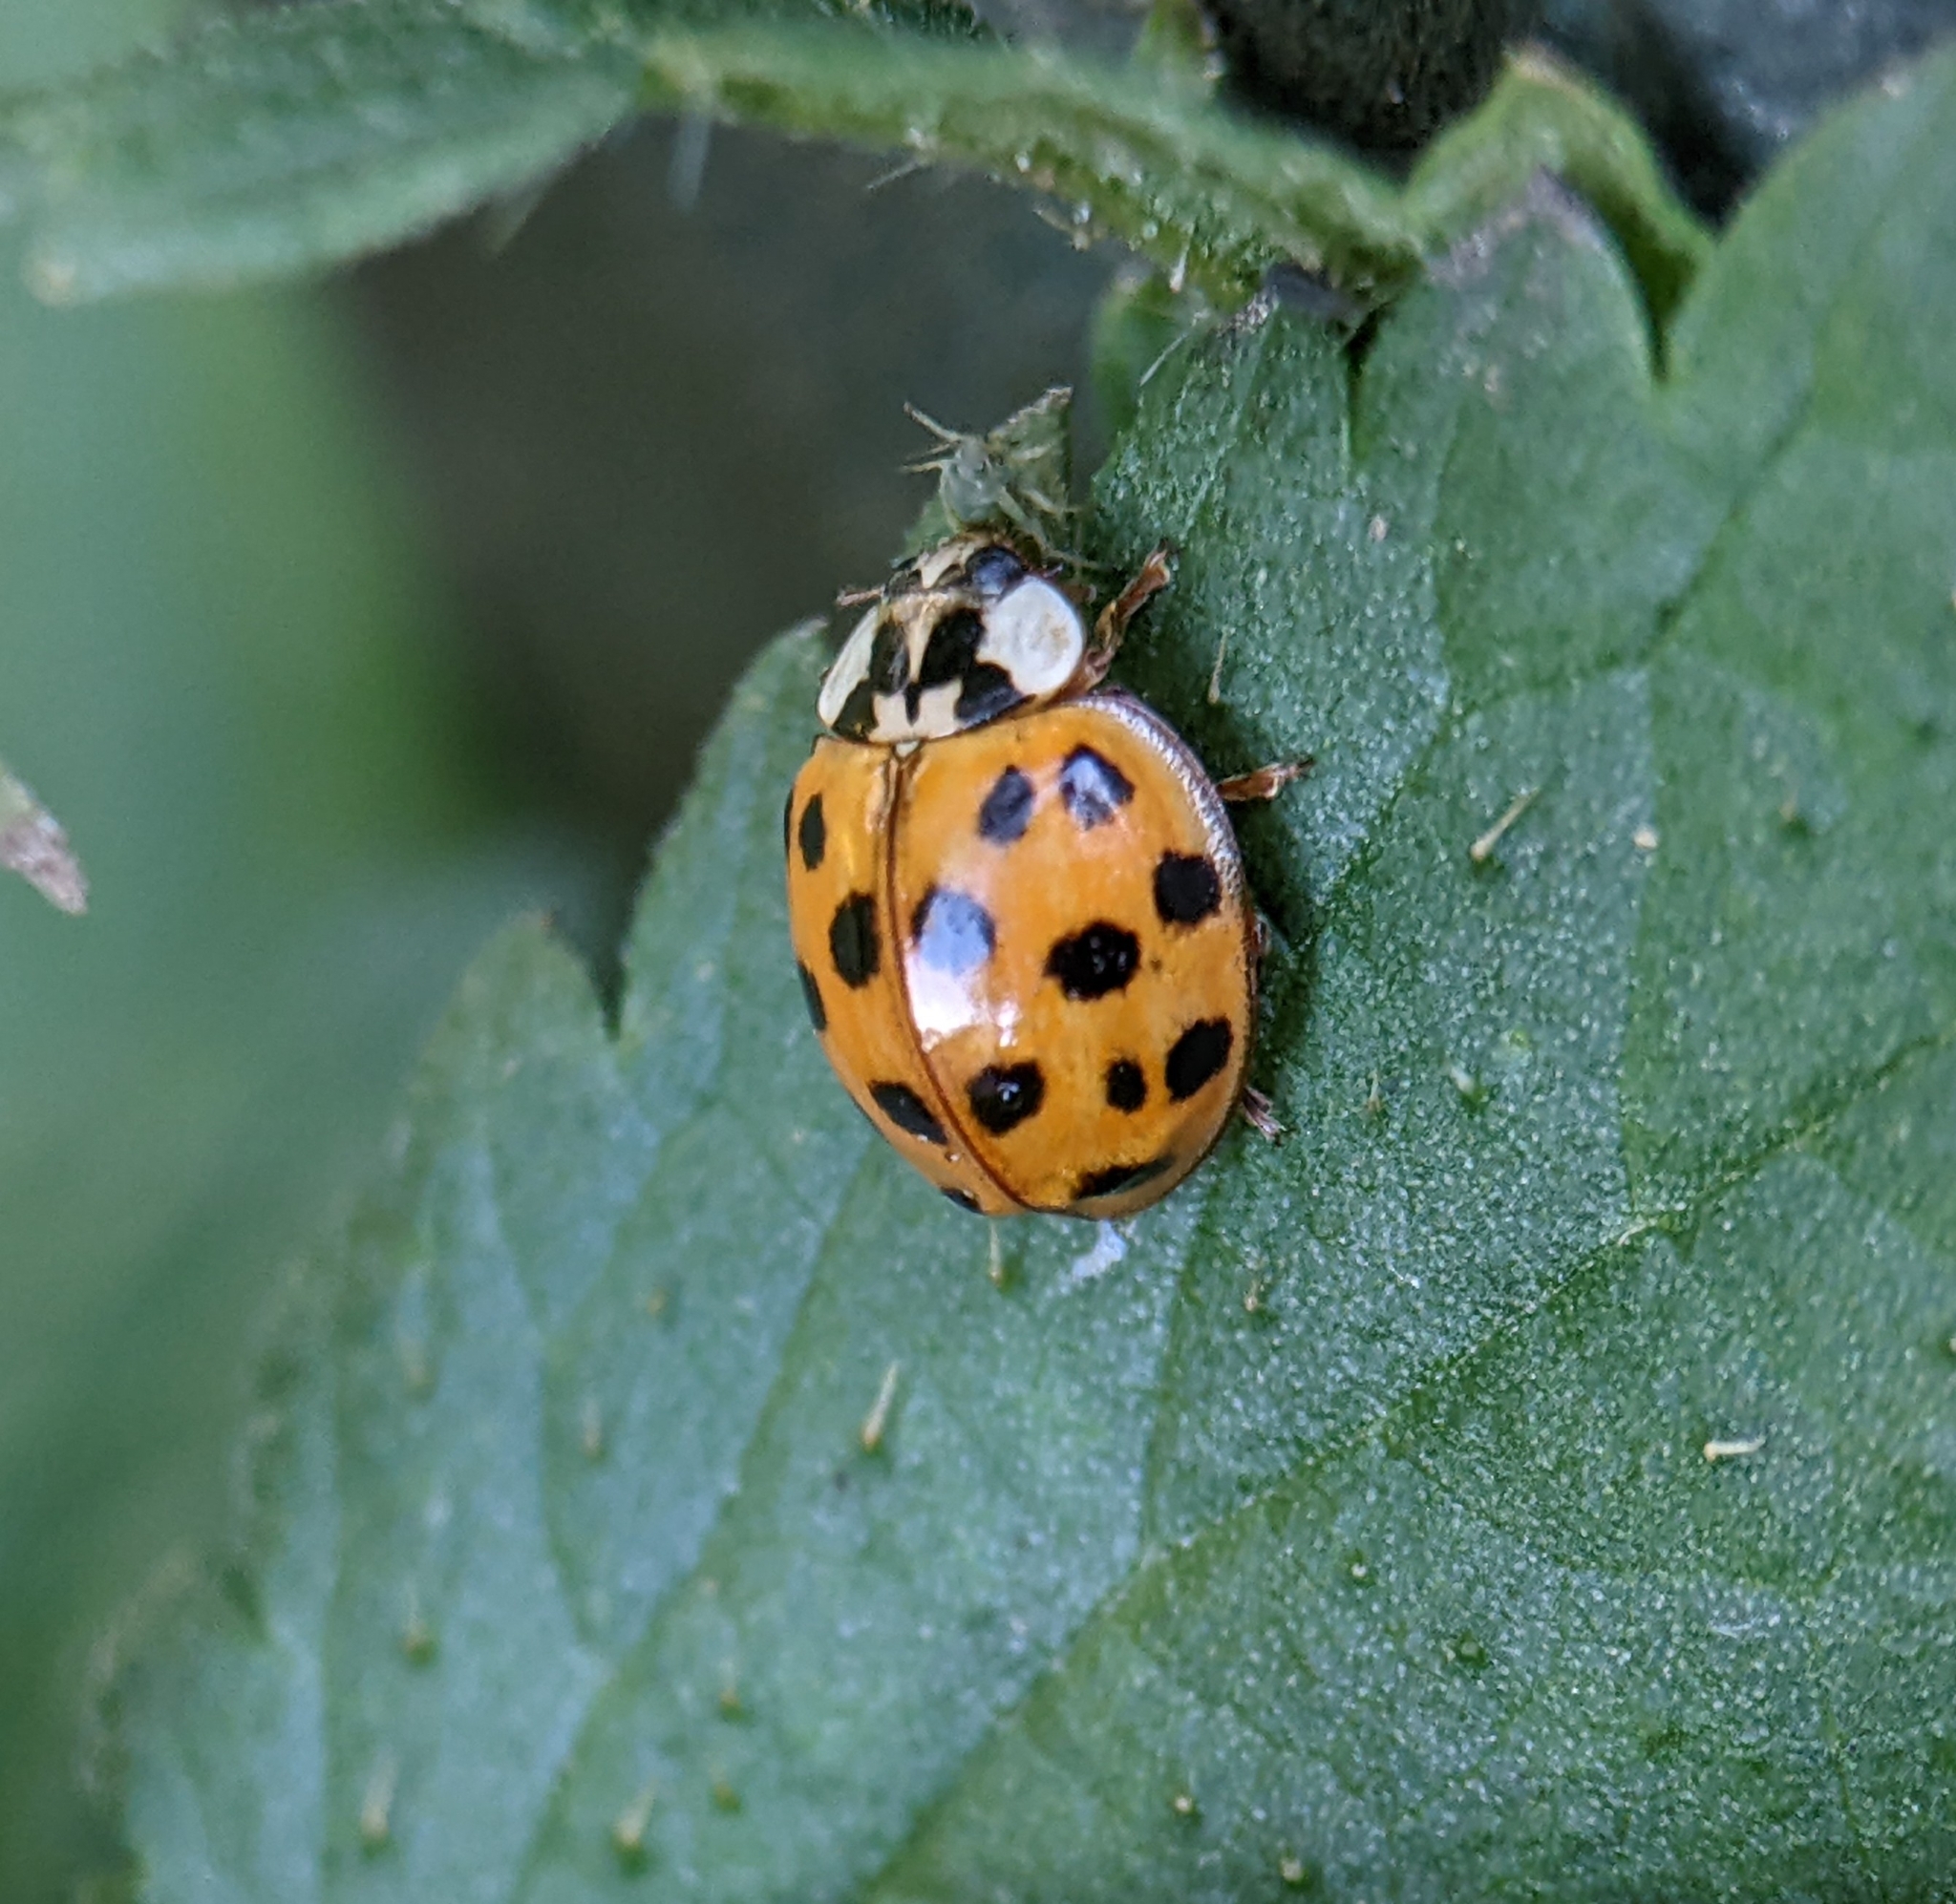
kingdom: Animalia
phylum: Arthropoda
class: Insecta
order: Coleoptera
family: Coccinellidae
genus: Harmonia
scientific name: Harmonia axyridis
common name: Harlequin ladybird
